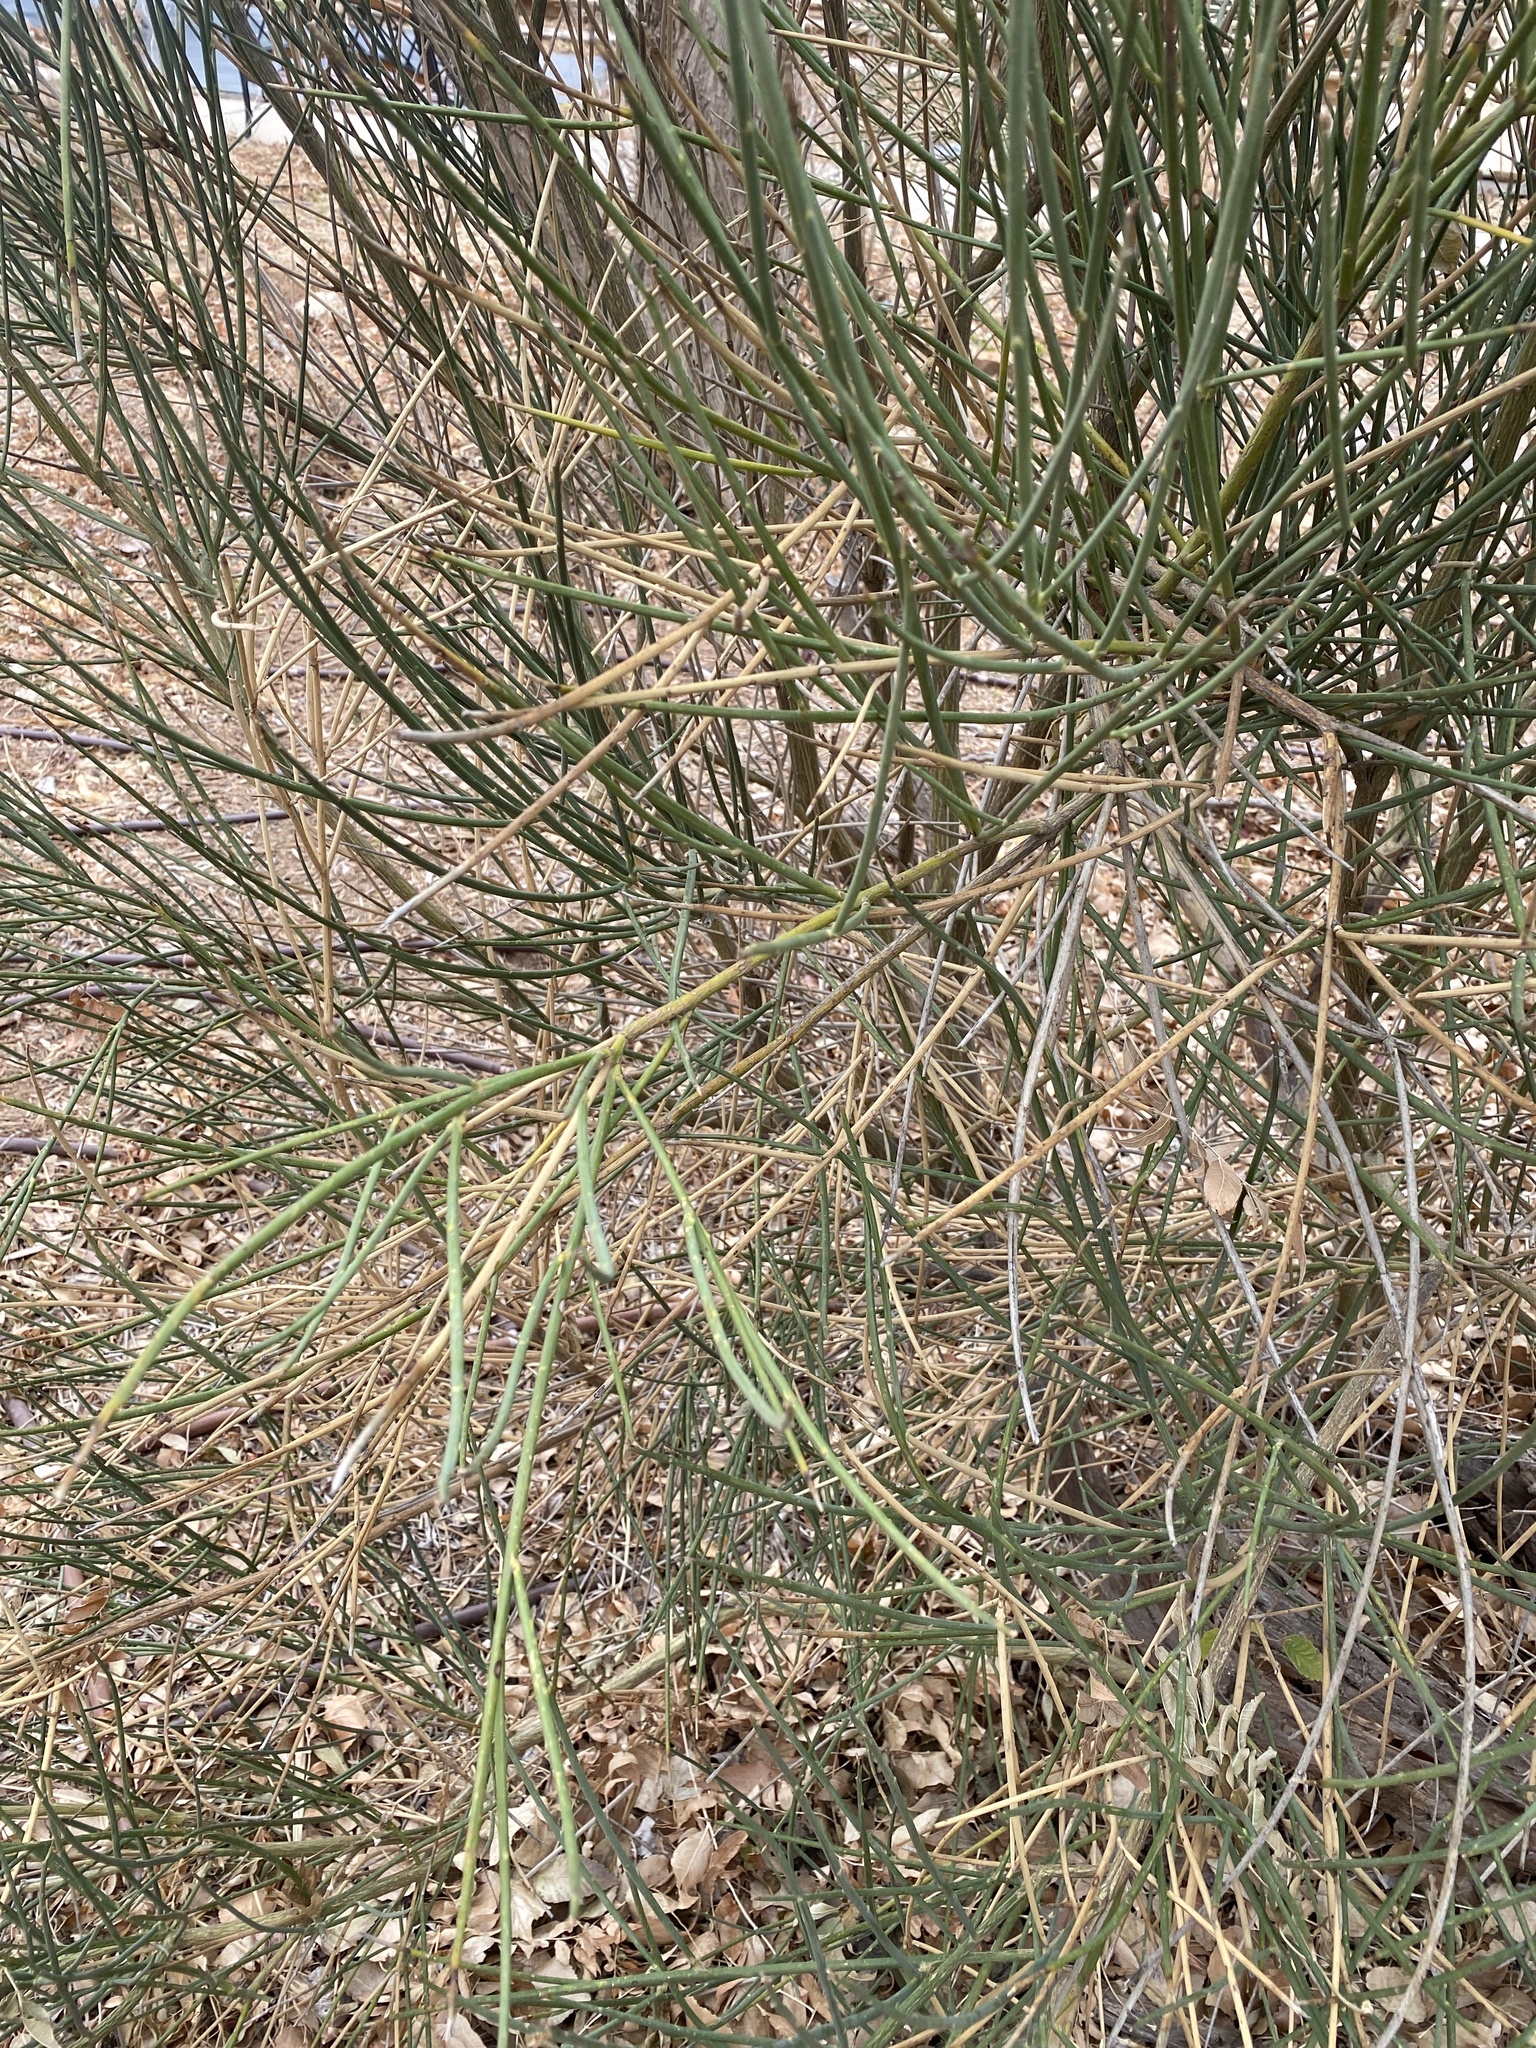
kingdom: Plantae
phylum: Tracheophyta
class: Magnoliopsida
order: Fabales
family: Fabaceae
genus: Spartium
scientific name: Spartium junceum
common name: Spanish broom
